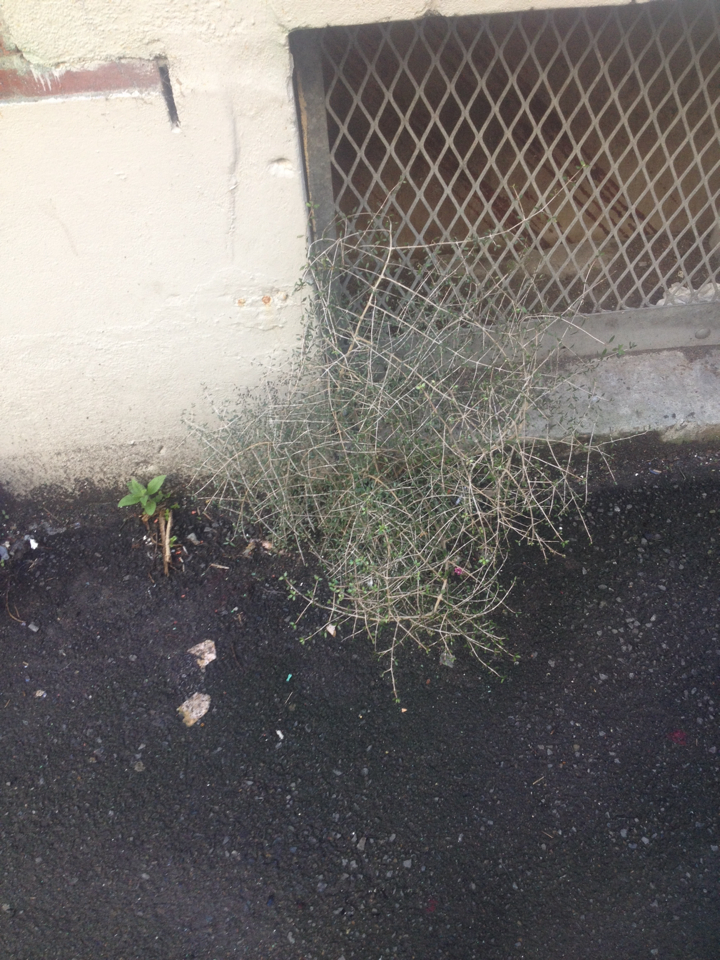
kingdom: Plantae
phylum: Tracheophyta
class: Magnoliopsida
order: Gentianales
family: Rubiaceae
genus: Coprosma
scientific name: Coprosma propinqua
